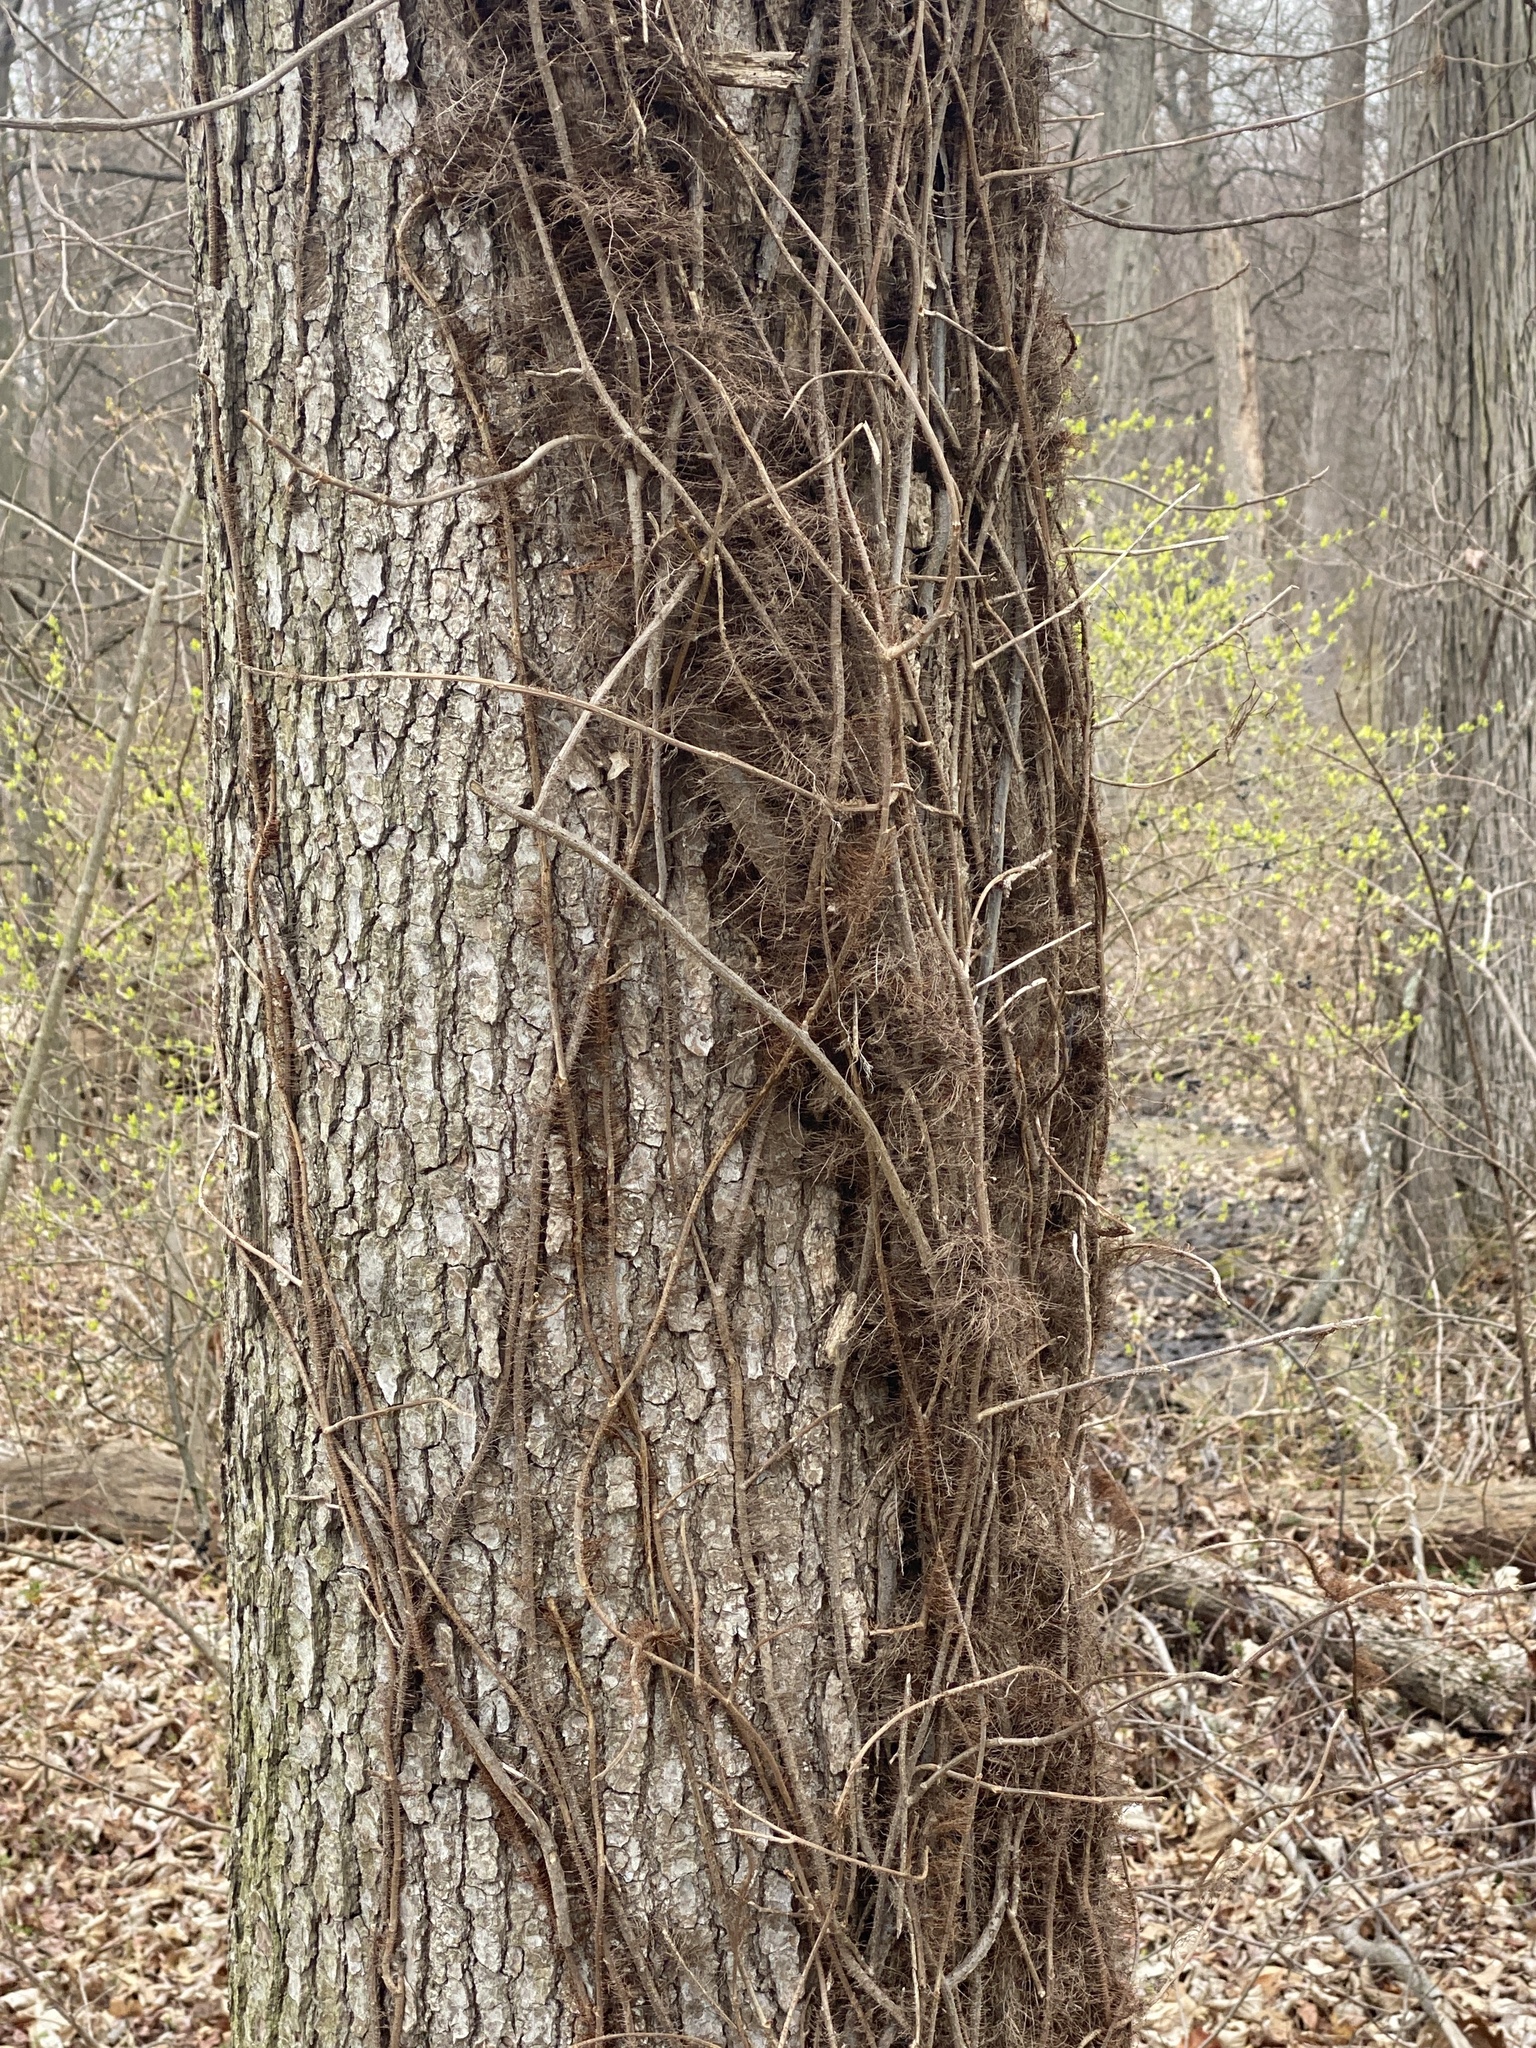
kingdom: Plantae
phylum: Tracheophyta
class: Magnoliopsida
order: Sapindales
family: Anacardiaceae
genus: Toxicodendron
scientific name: Toxicodendron radicans
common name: Poison ivy
